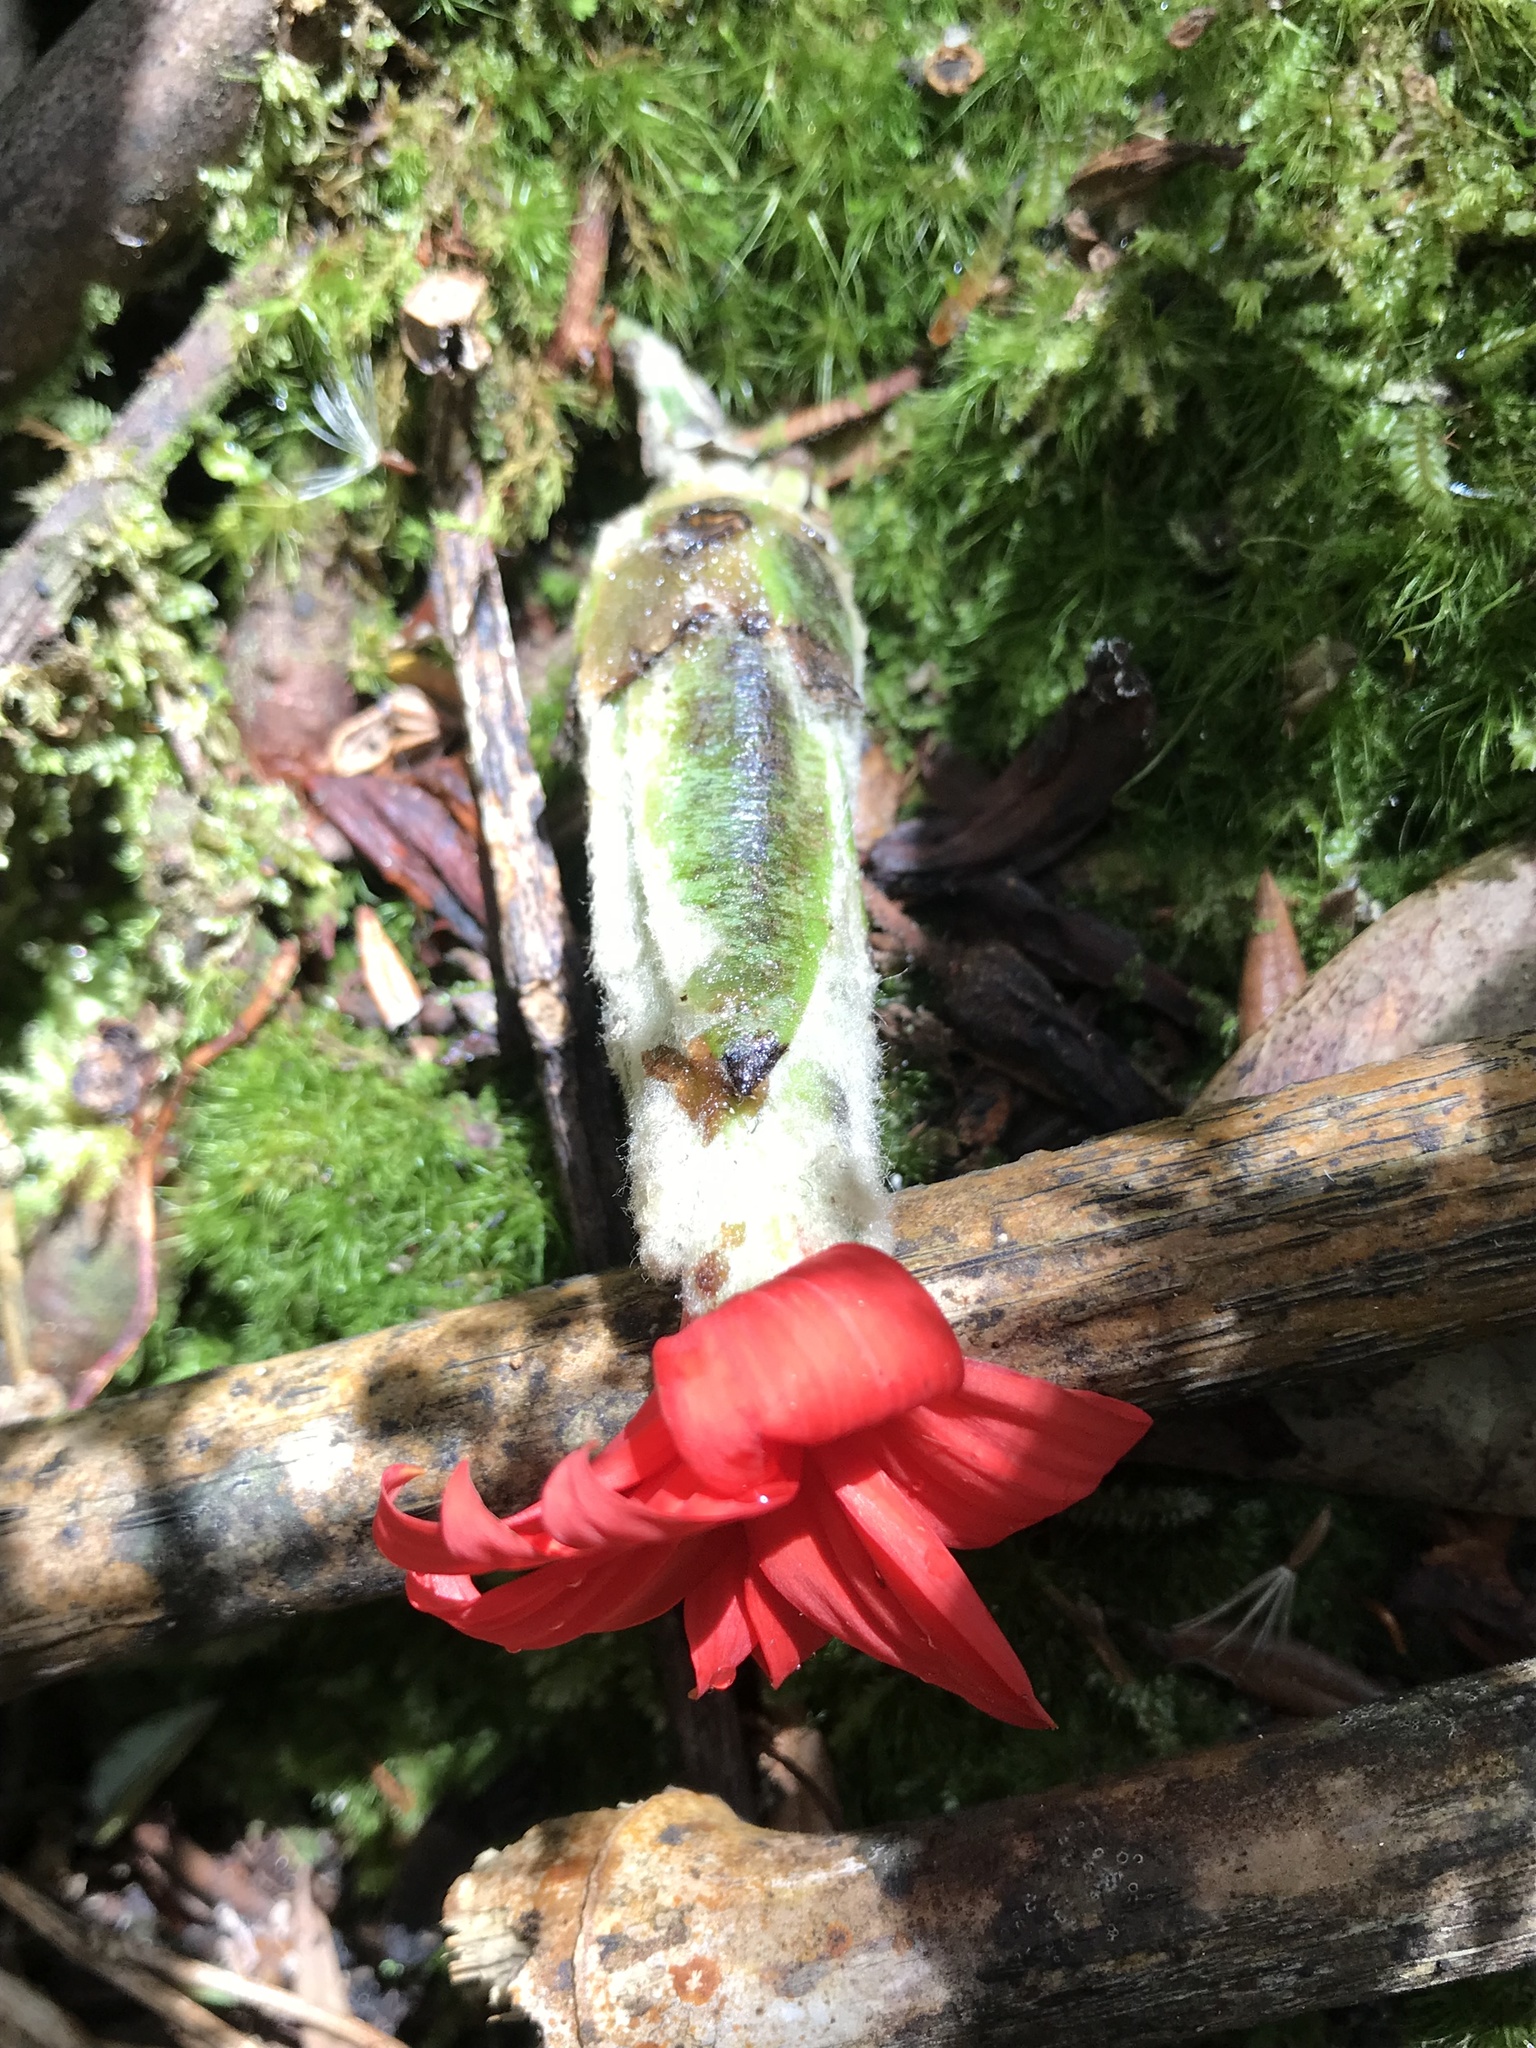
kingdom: Plantae
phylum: Tracheophyta
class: Magnoliopsida
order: Asterales
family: Asteraceae
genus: Mutisia
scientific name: Mutisia clematis
